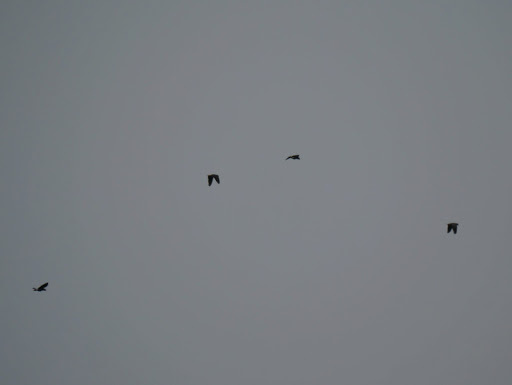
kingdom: Animalia
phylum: Chordata
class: Aves
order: Psittaciformes
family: Psittacidae
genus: Psittacus
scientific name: Psittacus erithacus
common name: Grey parrot
